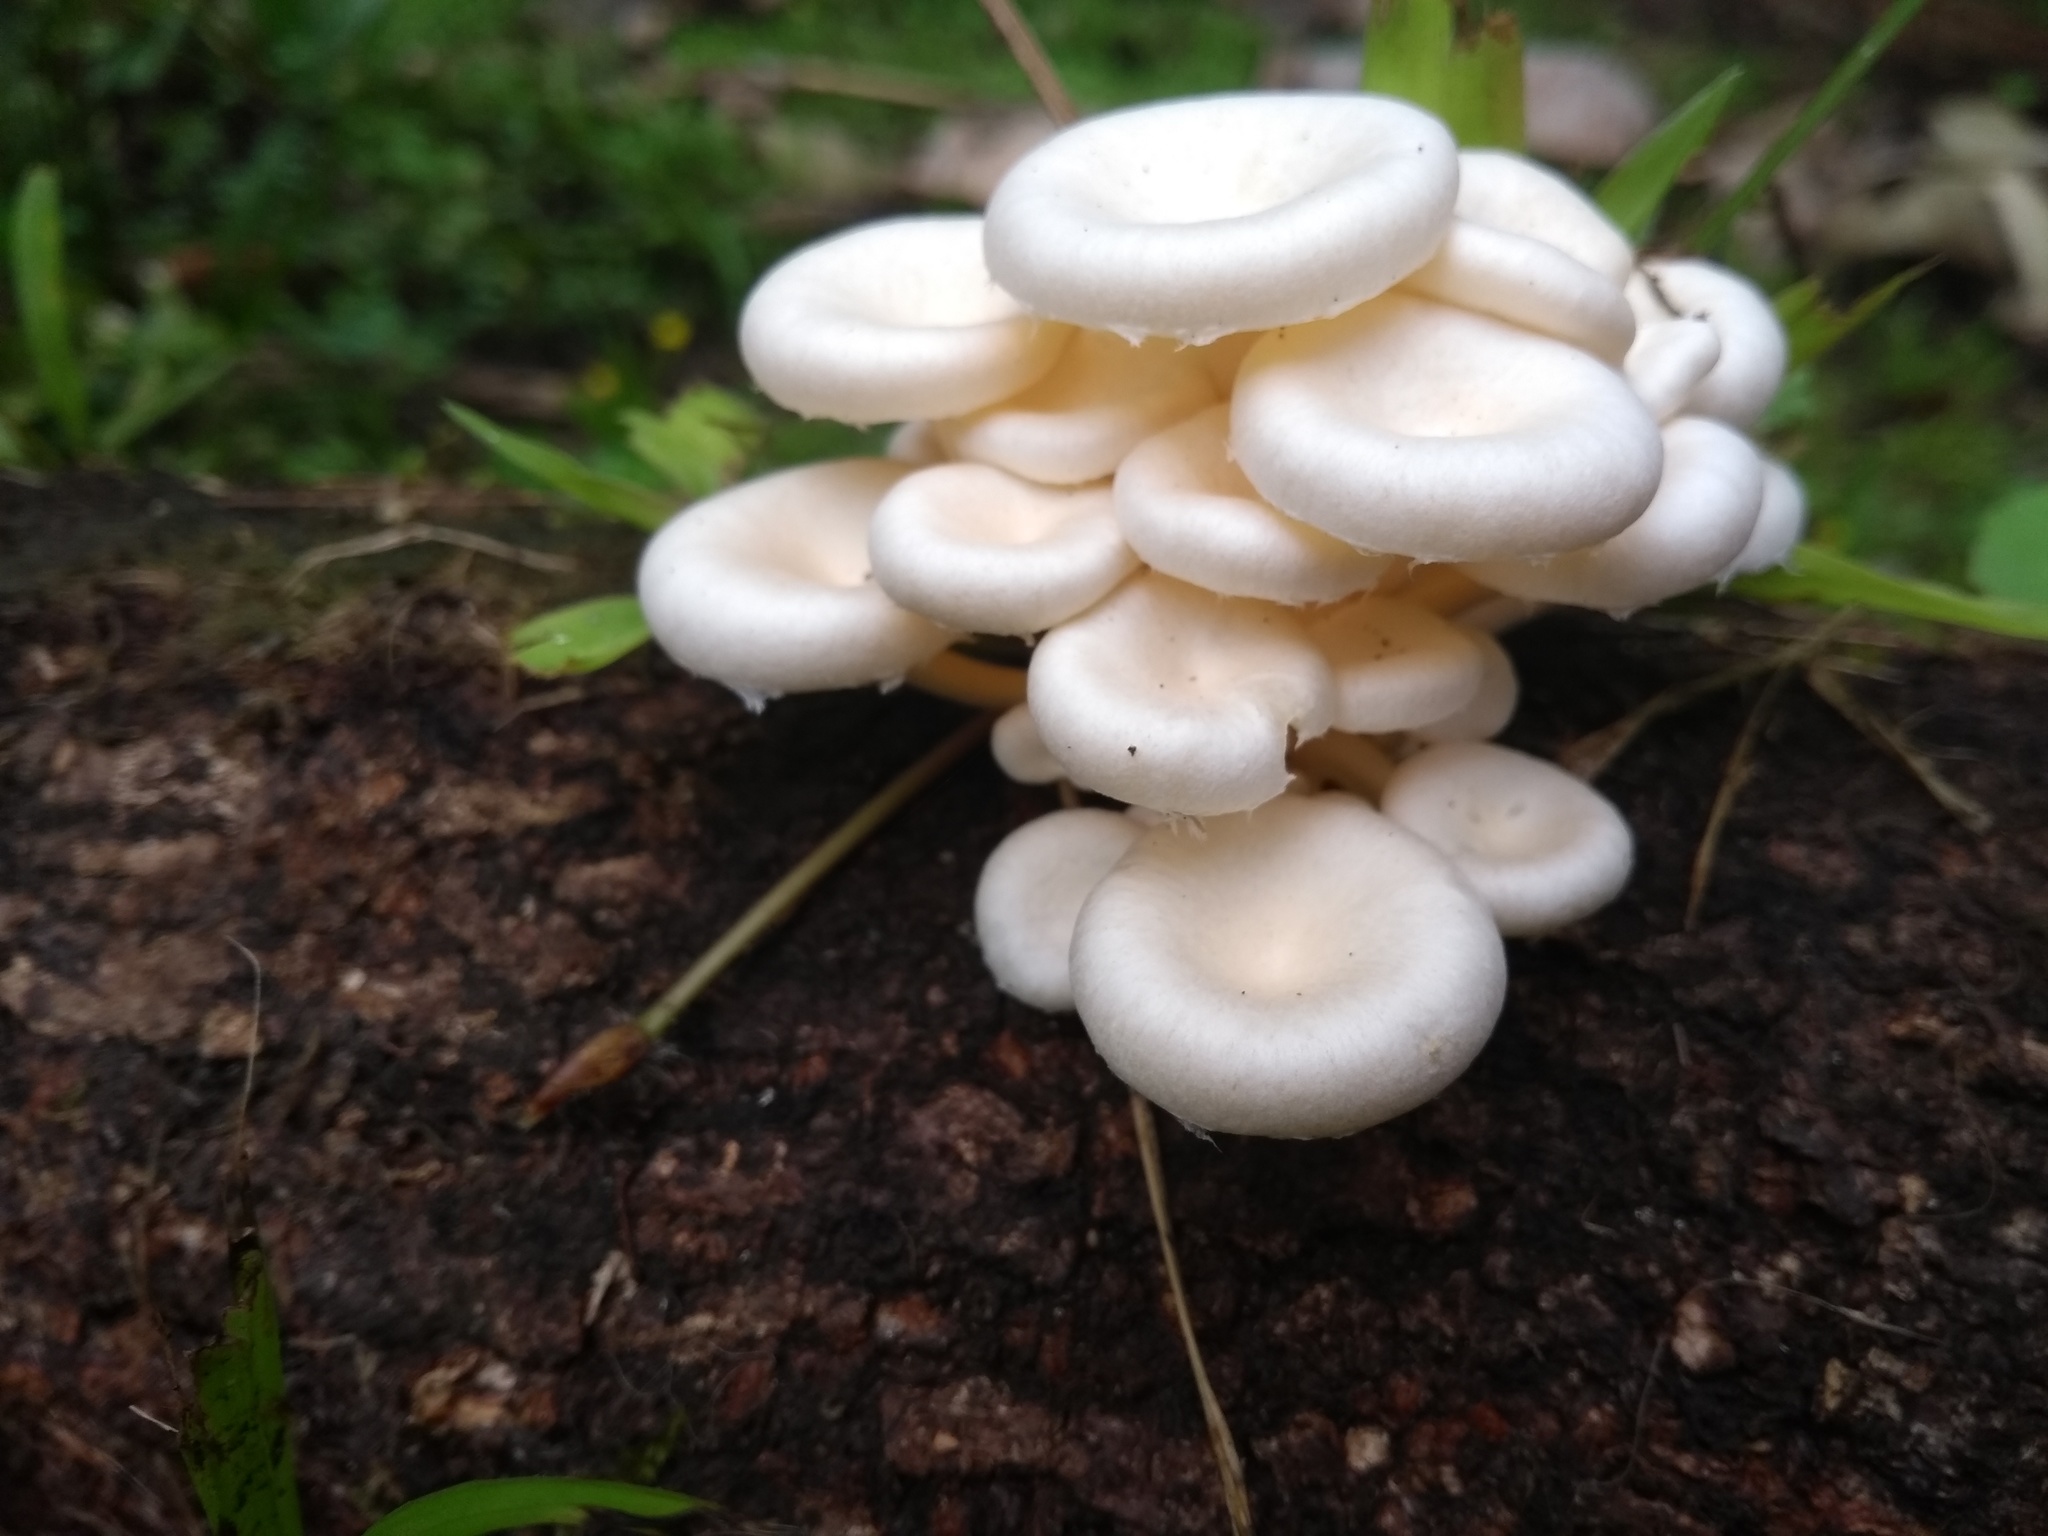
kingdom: Fungi
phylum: Basidiomycota
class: Agaricomycetes
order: Polyporales
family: Polyporaceae
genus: Lentinus
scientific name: Lentinus concavus
